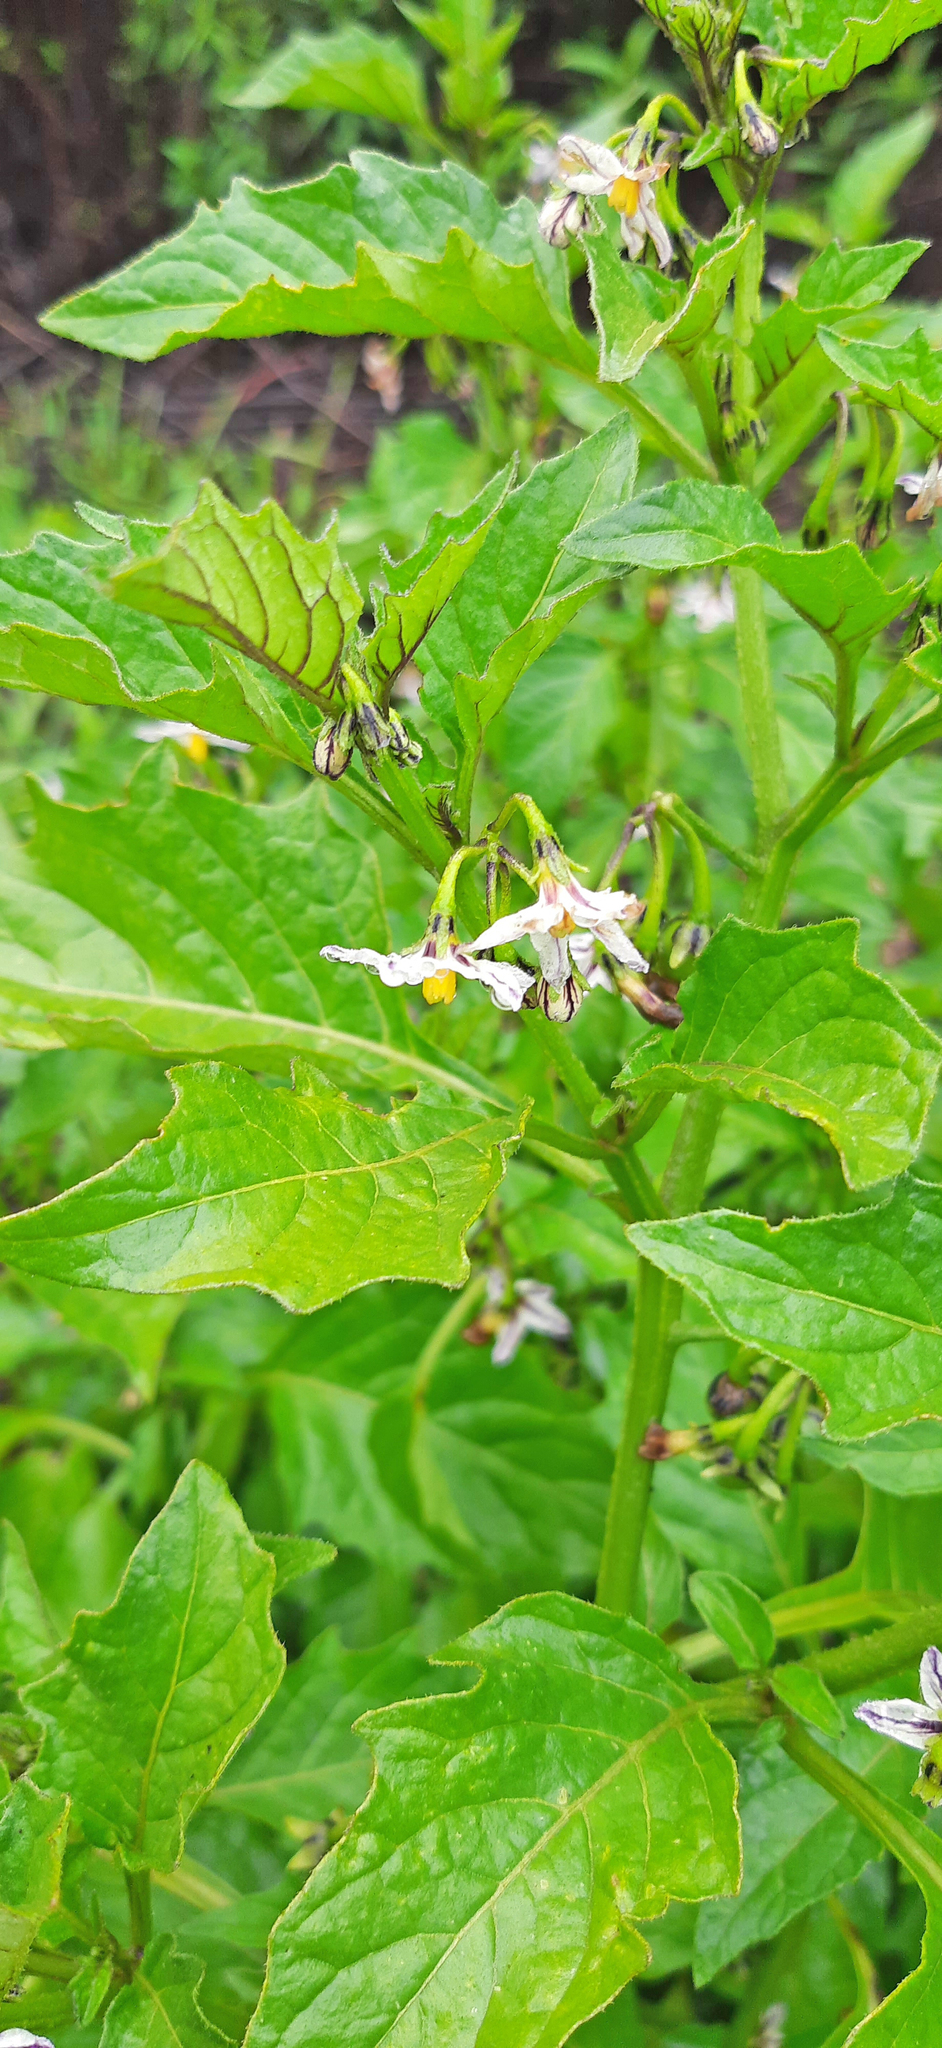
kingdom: Plantae
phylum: Tracheophyta
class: Magnoliopsida
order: Solanales
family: Solanaceae
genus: Solanum
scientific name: Solanum villosum
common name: Red nightshade
